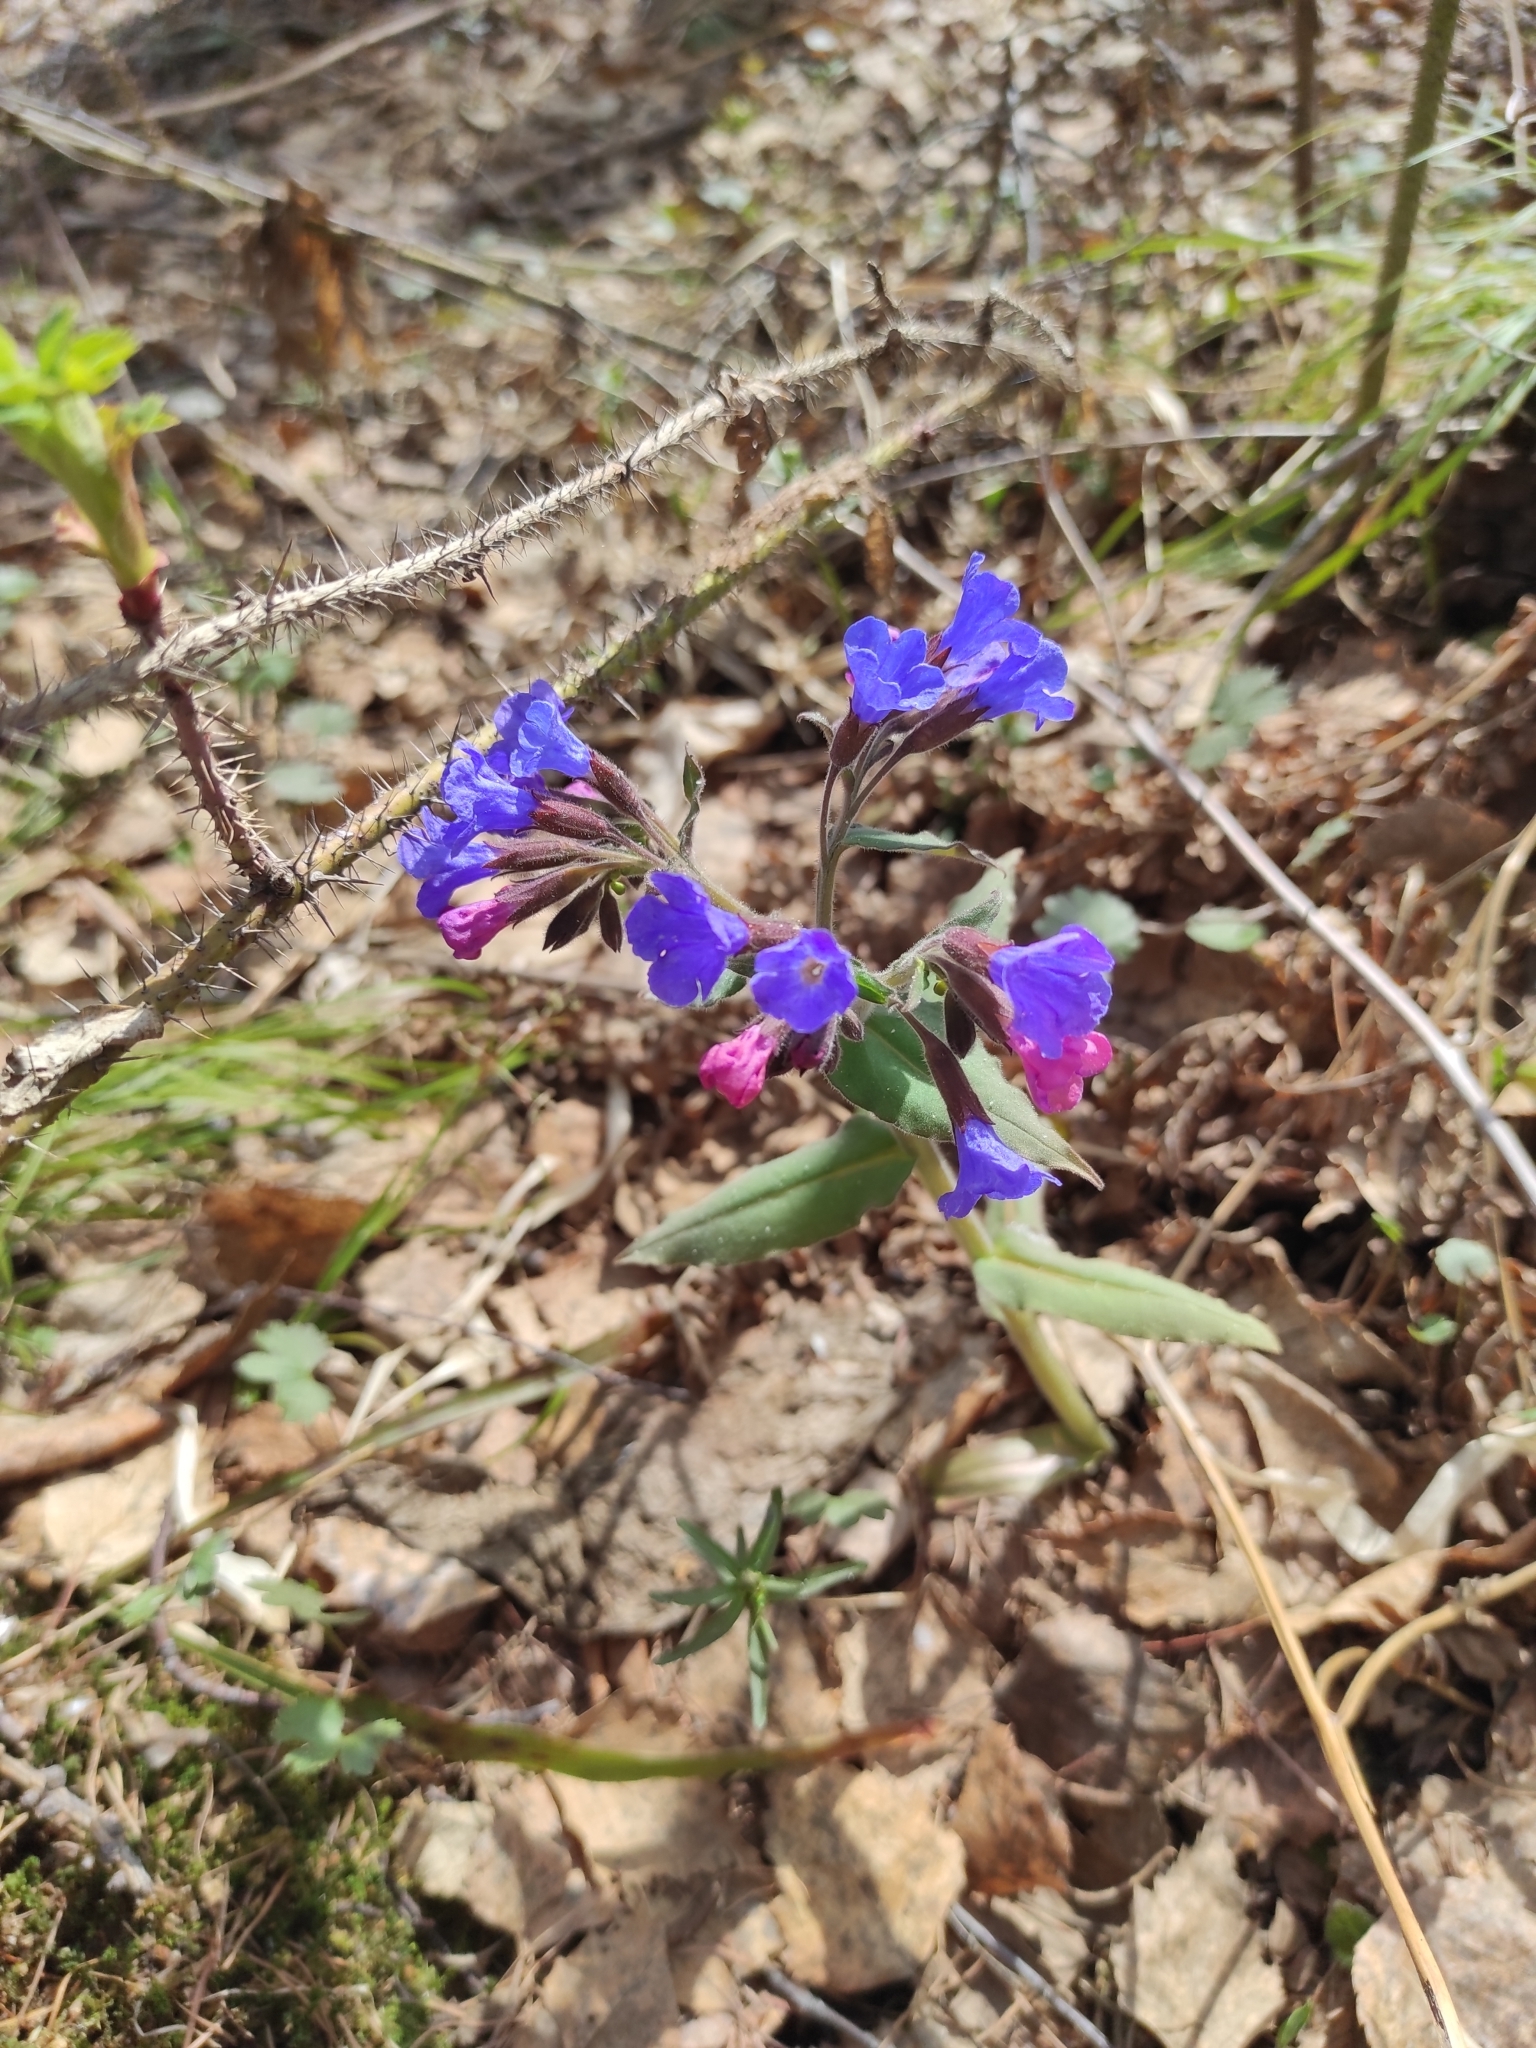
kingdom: Plantae
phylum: Tracheophyta
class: Magnoliopsida
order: Boraginales
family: Boraginaceae
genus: Pulmonaria
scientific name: Pulmonaria mollis
